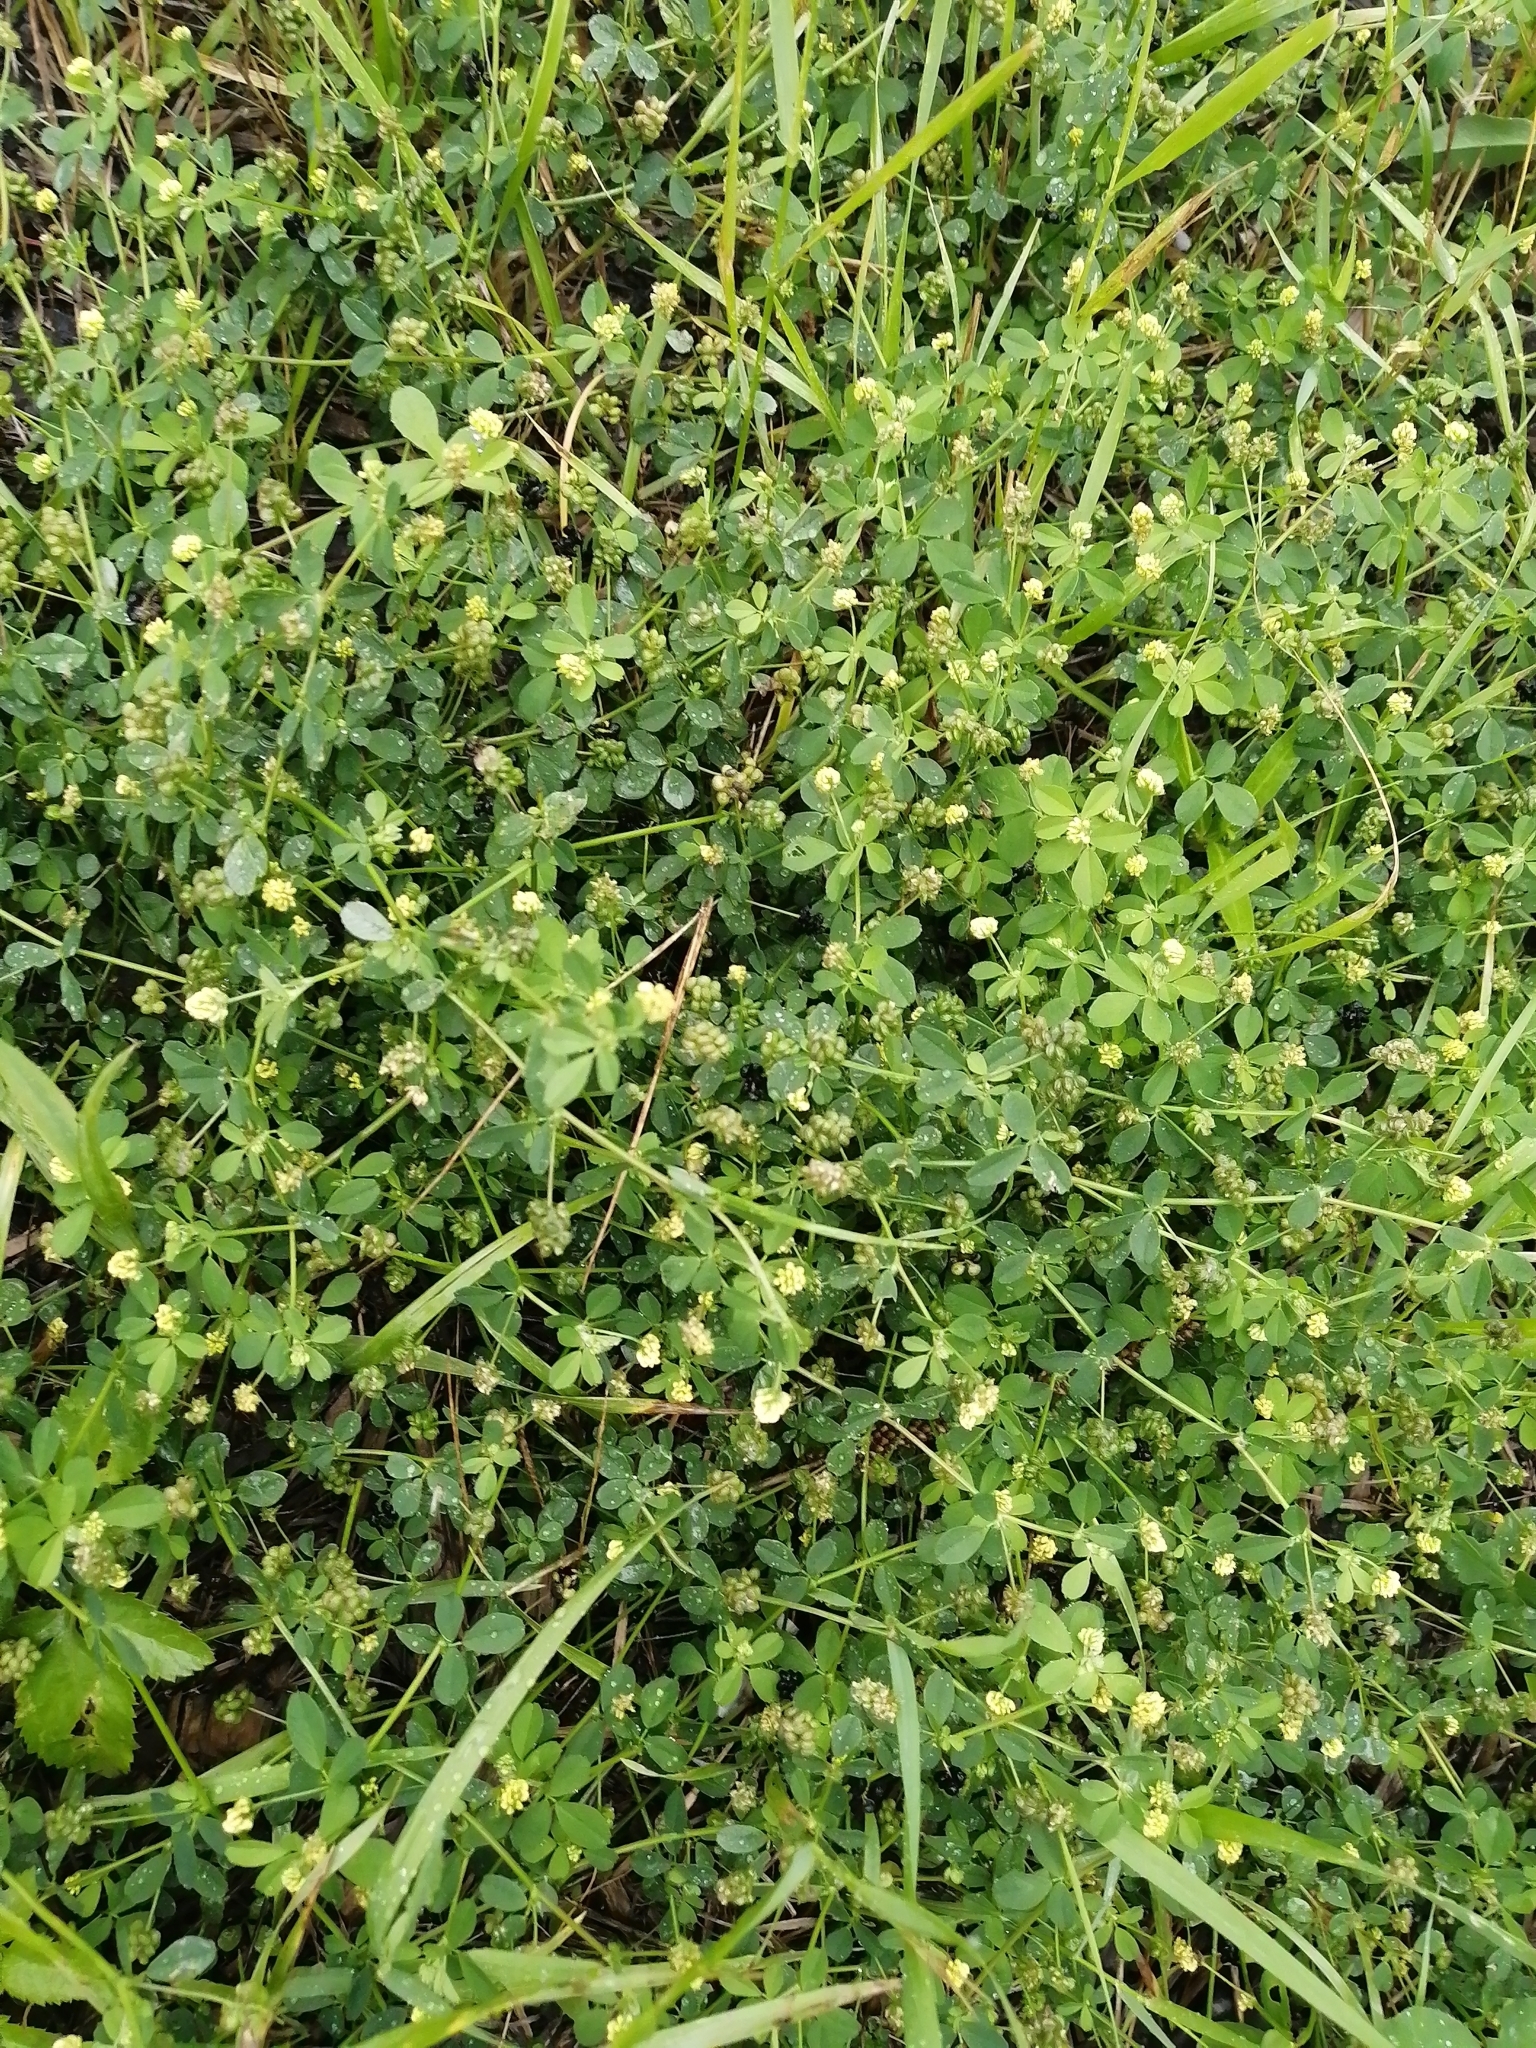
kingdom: Plantae
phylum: Tracheophyta
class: Magnoliopsida
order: Fabales
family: Fabaceae
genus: Medicago
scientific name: Medicago lupulina
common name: Black medick
